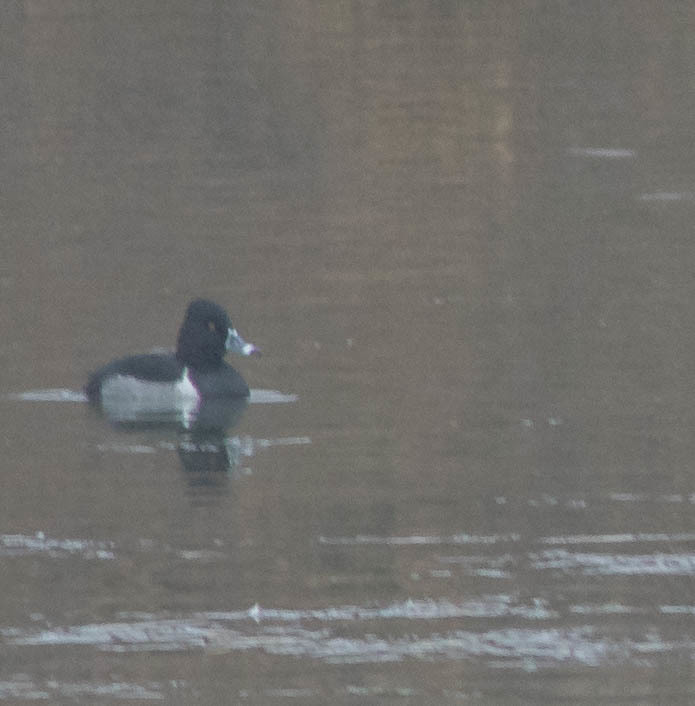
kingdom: Animalia
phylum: Chordata
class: Aves
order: Anseriformes
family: Anatidae
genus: Aythya
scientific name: Aythya collaris
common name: Ring-necked duck
